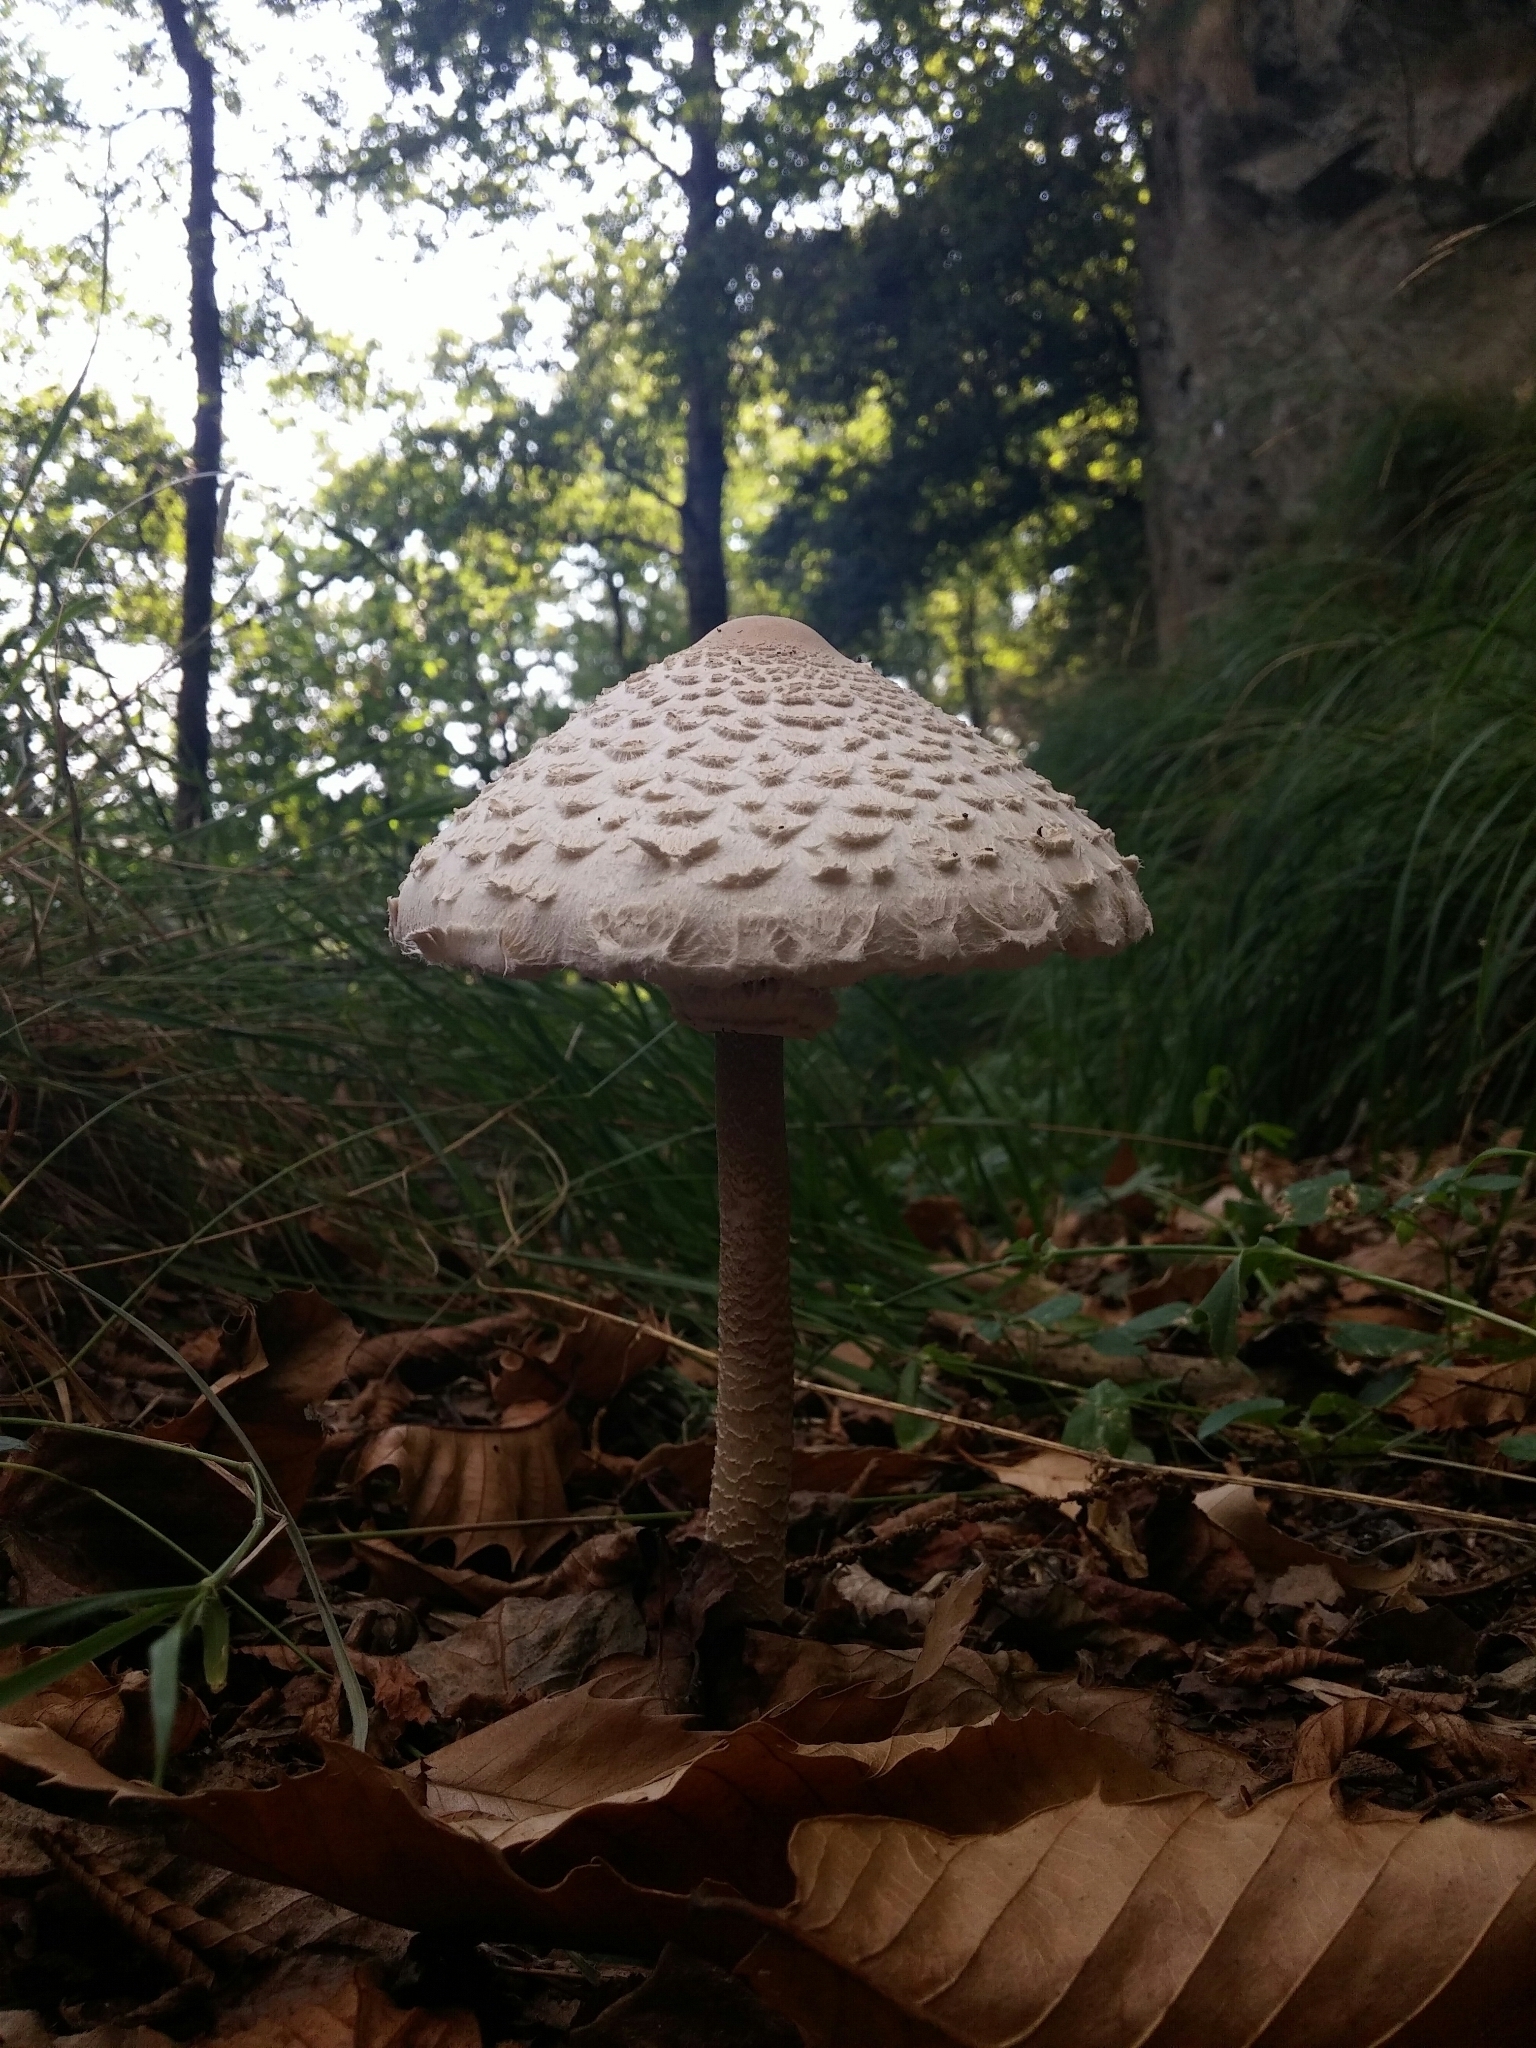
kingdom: Fungi
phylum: Basidiomycota
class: Agaricomycetes
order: Agaricales
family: Agaricaceae
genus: Macrolepiota
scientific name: Macrolepiota procera
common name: Parasol
